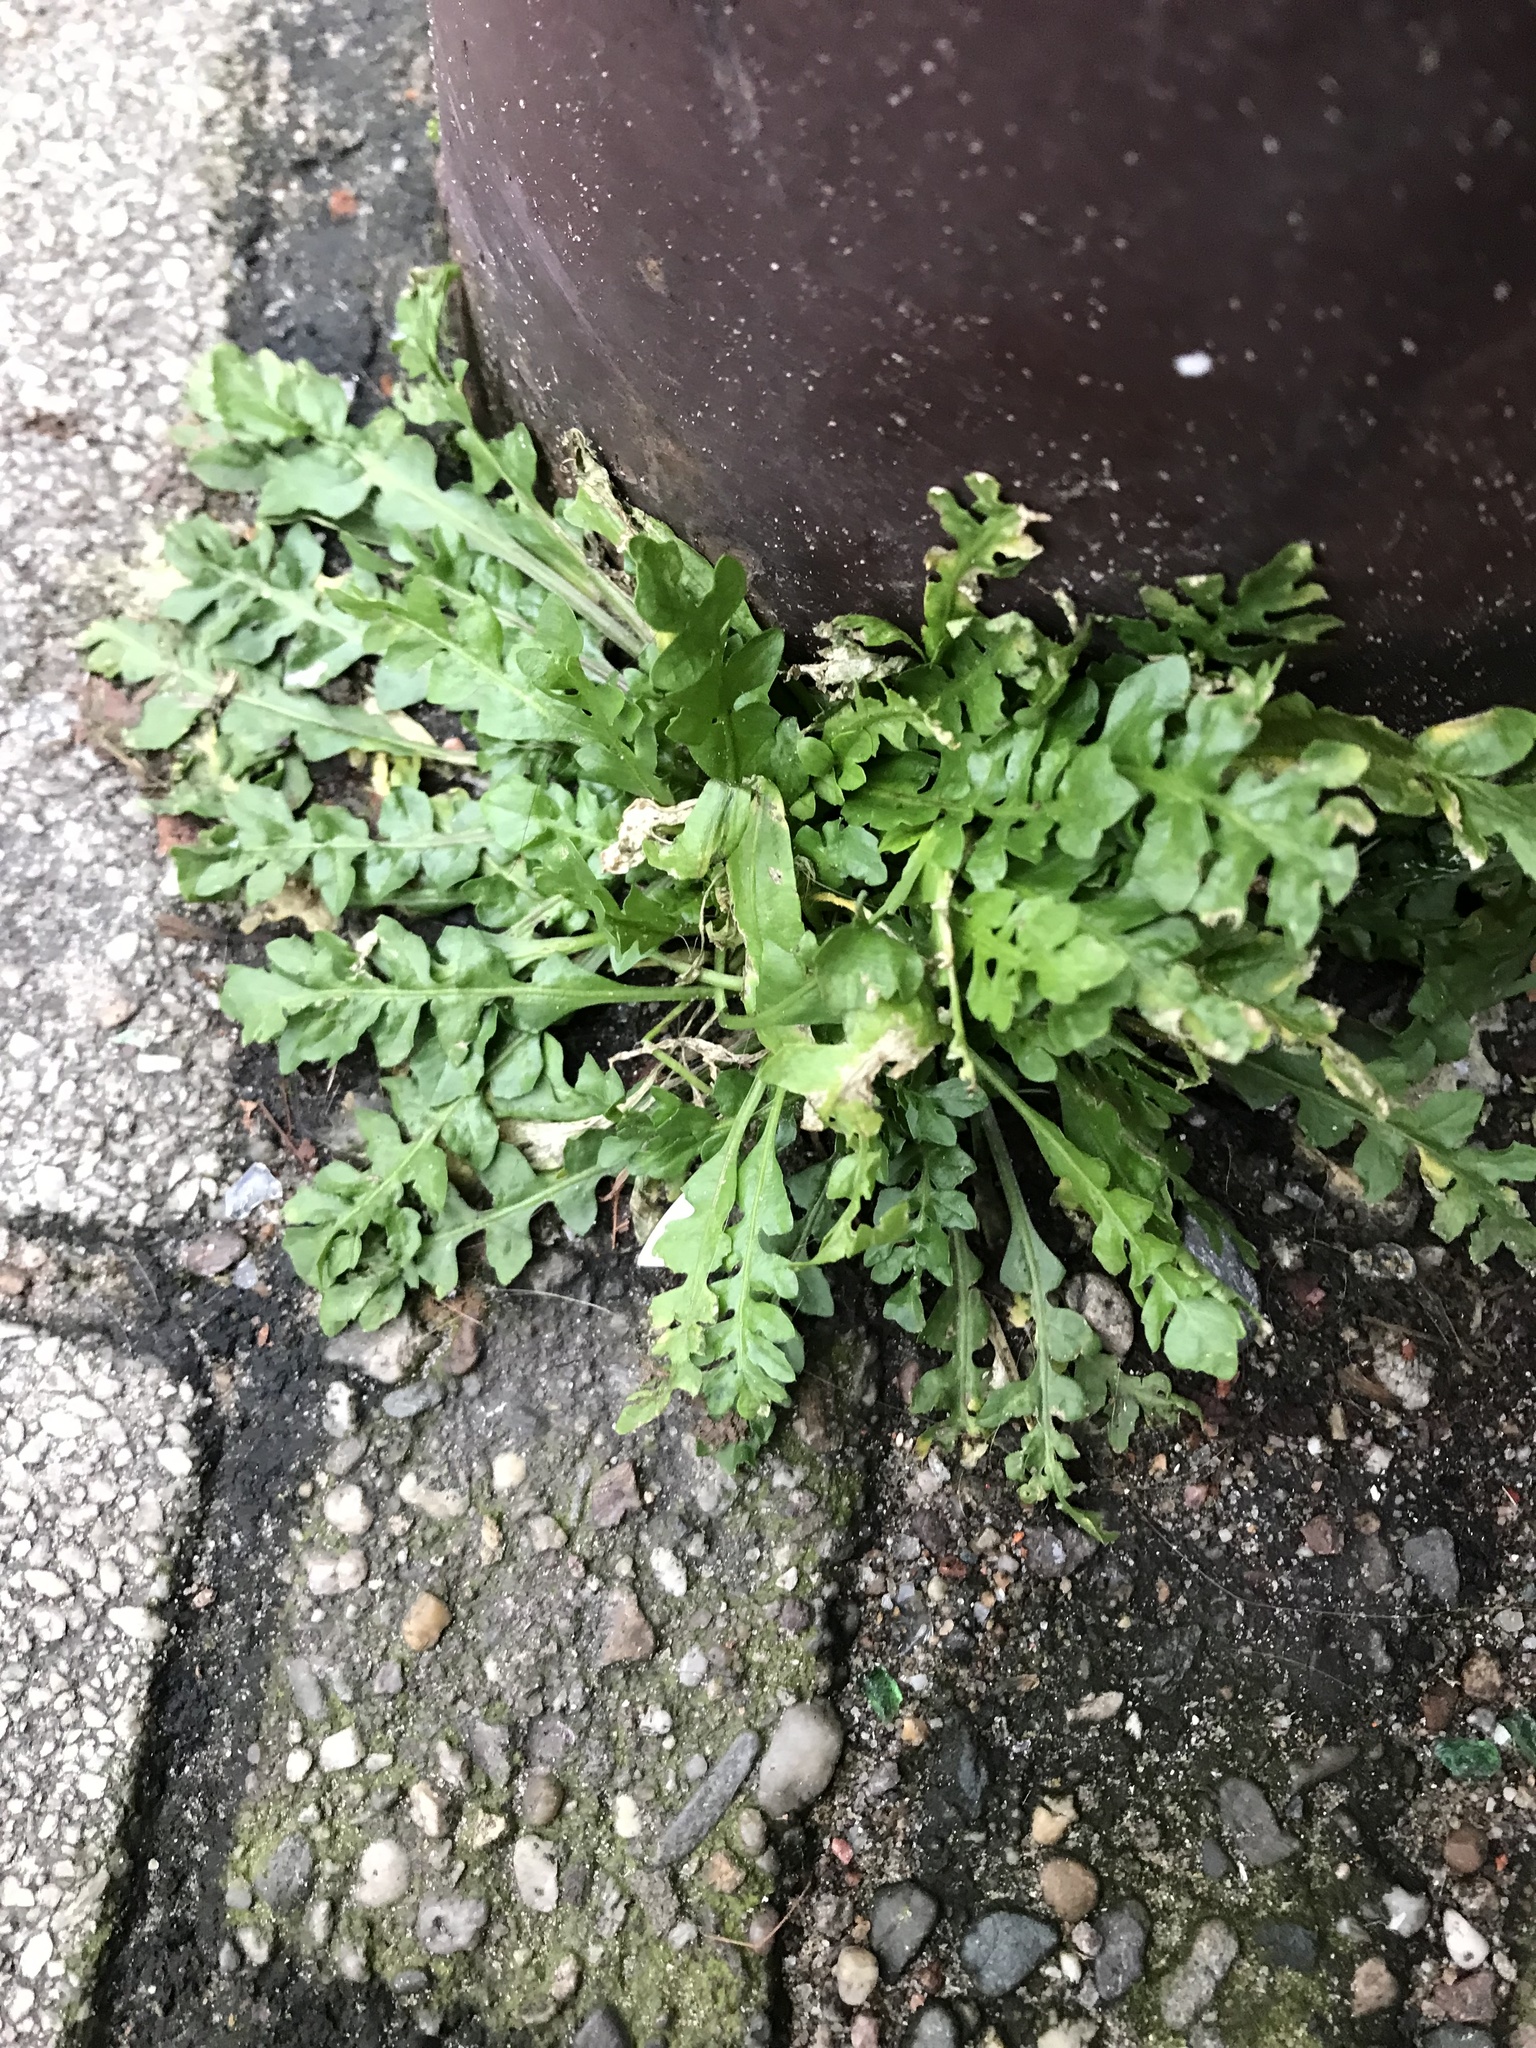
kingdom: Plantae
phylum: Tracheophyta
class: Magnoliopsida
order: Brassicales
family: Brassicaceae
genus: Capsella
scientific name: Capsella bursa-pastoris
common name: Shepherd's purse
